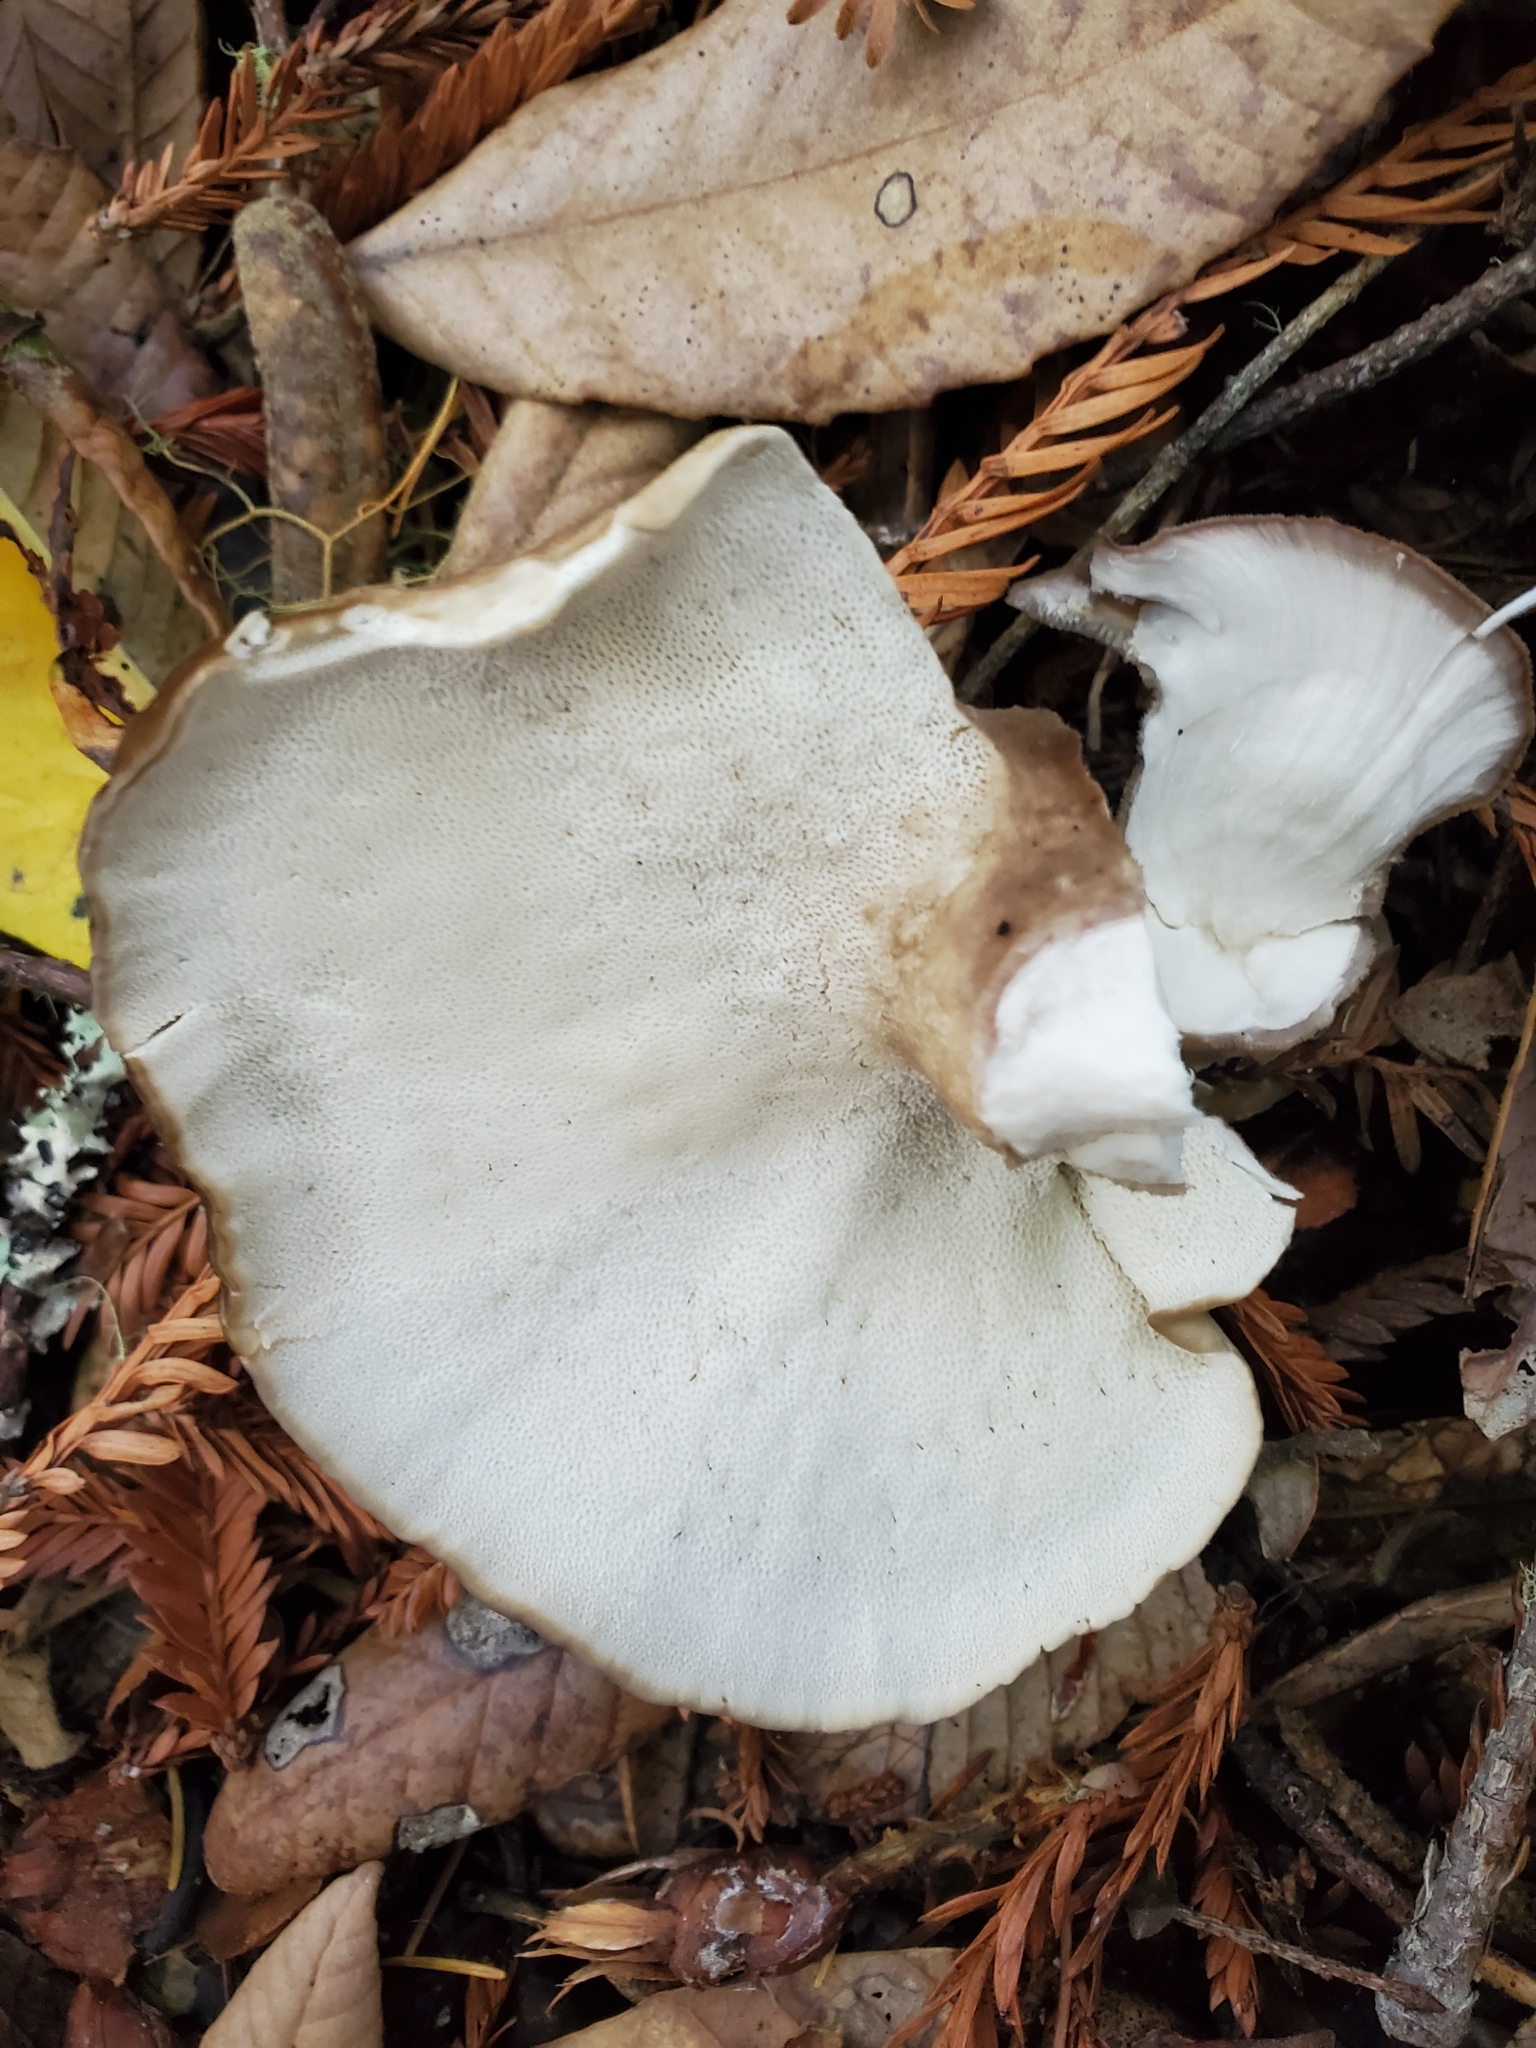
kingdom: Fungi
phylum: Basidiomycota
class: Agaricomycetes
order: Polyporales
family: Dacryobolaceae
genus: Jahnoporus
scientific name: Jahnoporus hirtus
